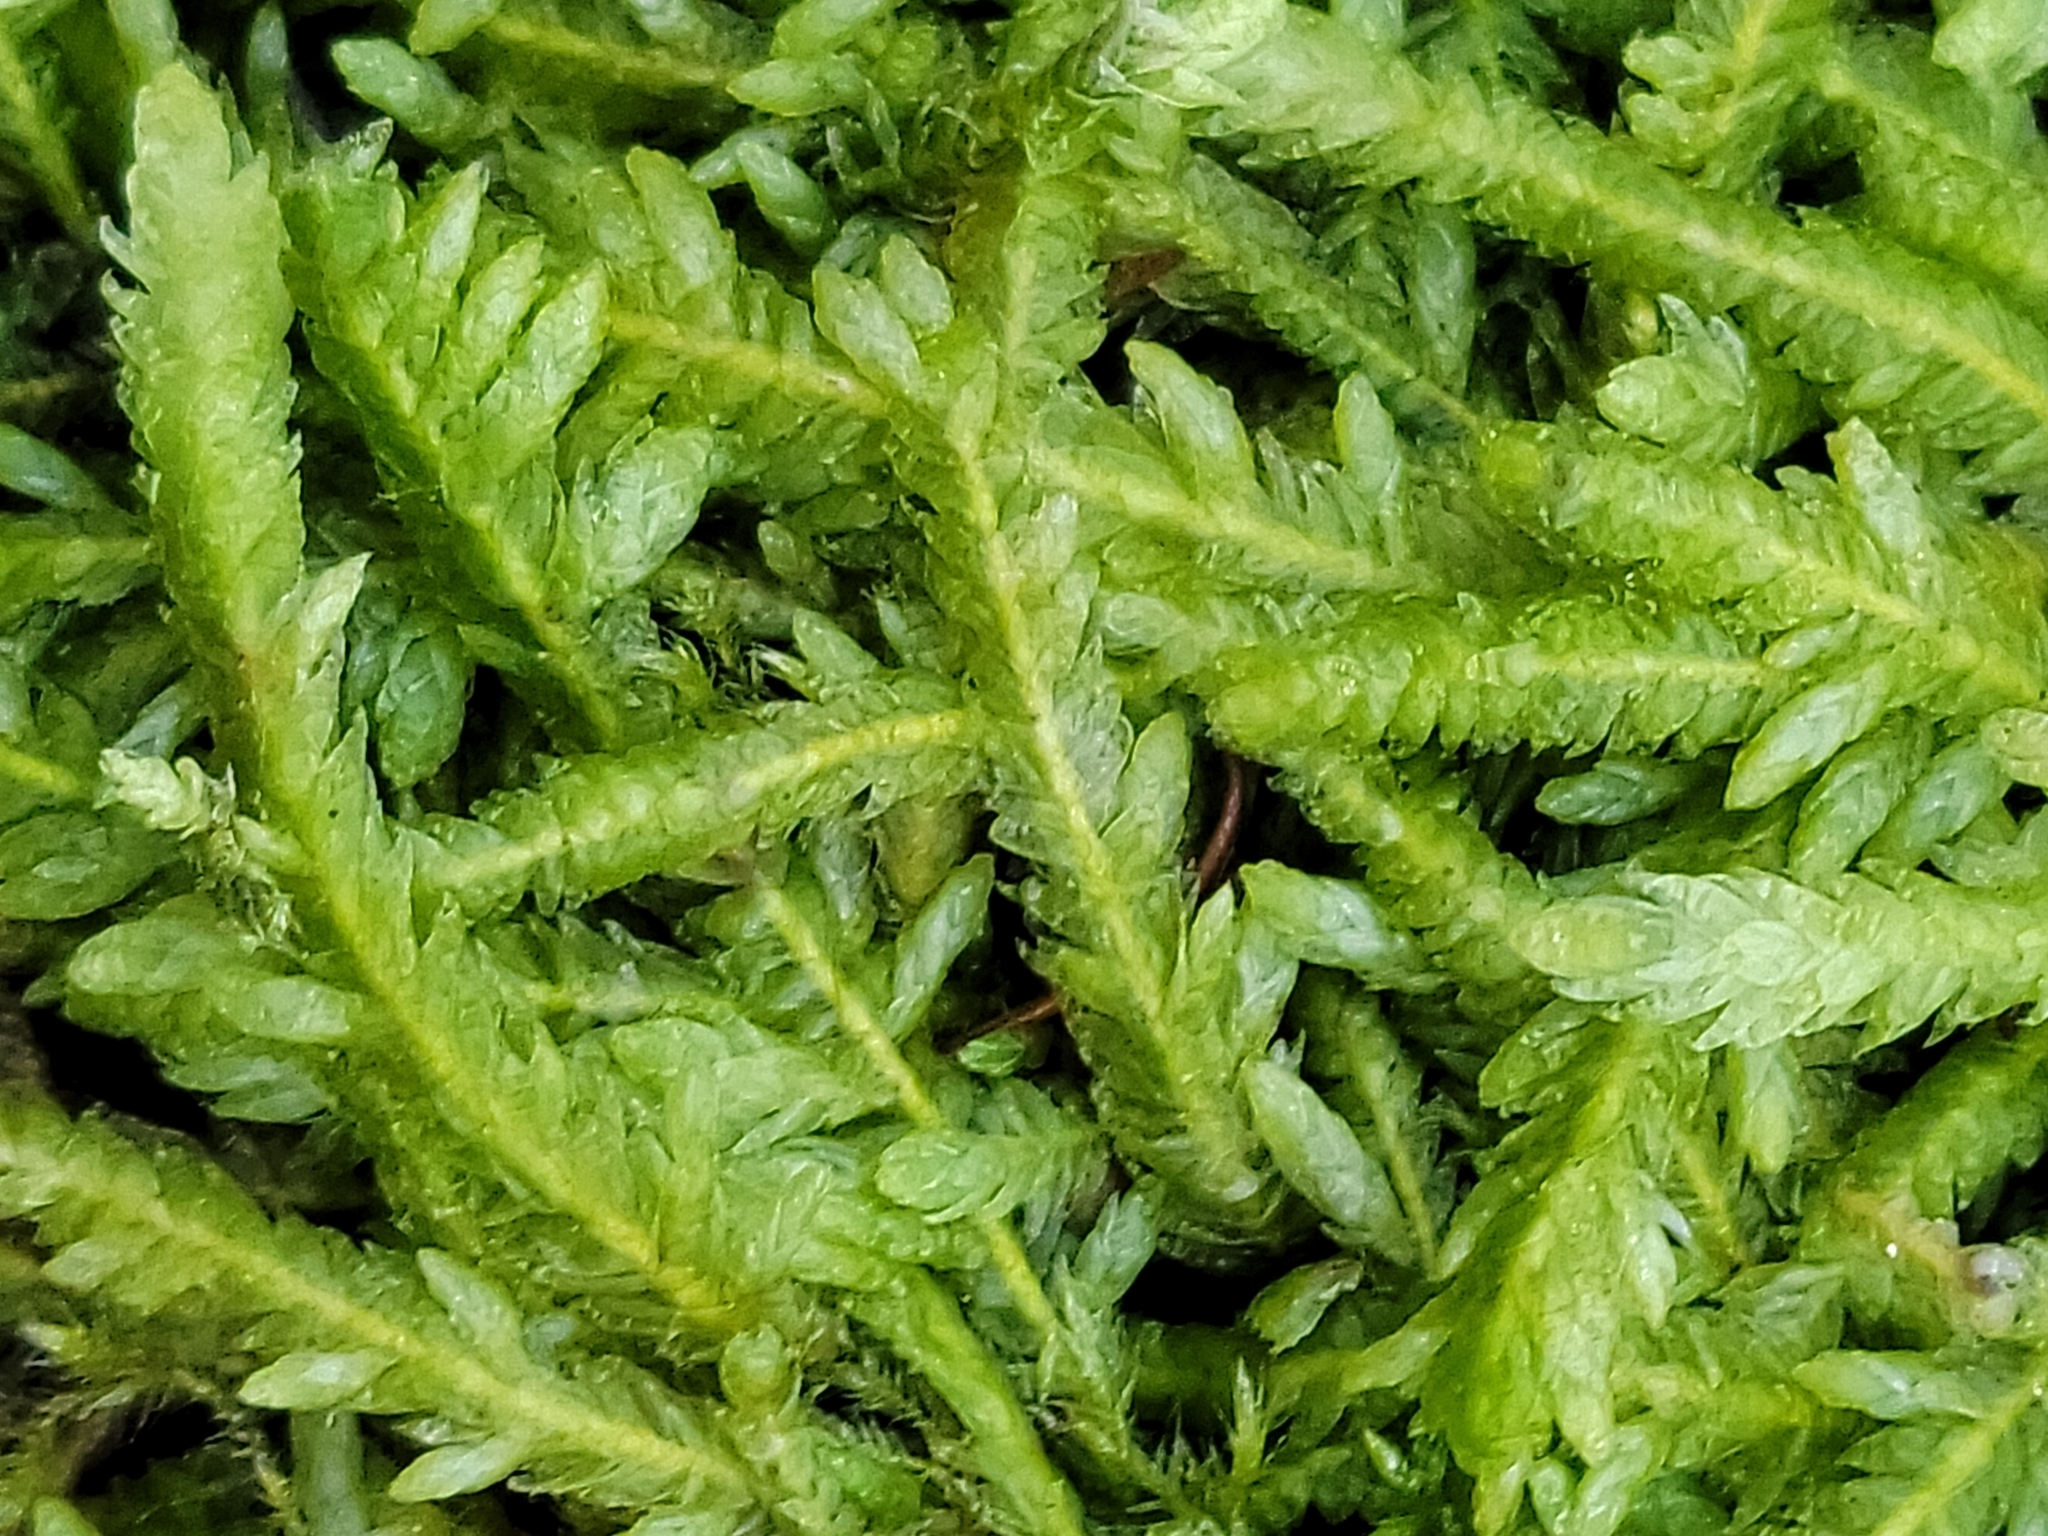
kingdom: Plantae
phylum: Bryophyta
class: Bryopsida
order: Hypnales
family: Plagiotheciaceae
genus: Plagiothecium
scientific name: Plagiothecium undulatum
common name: Waved silk-moss
